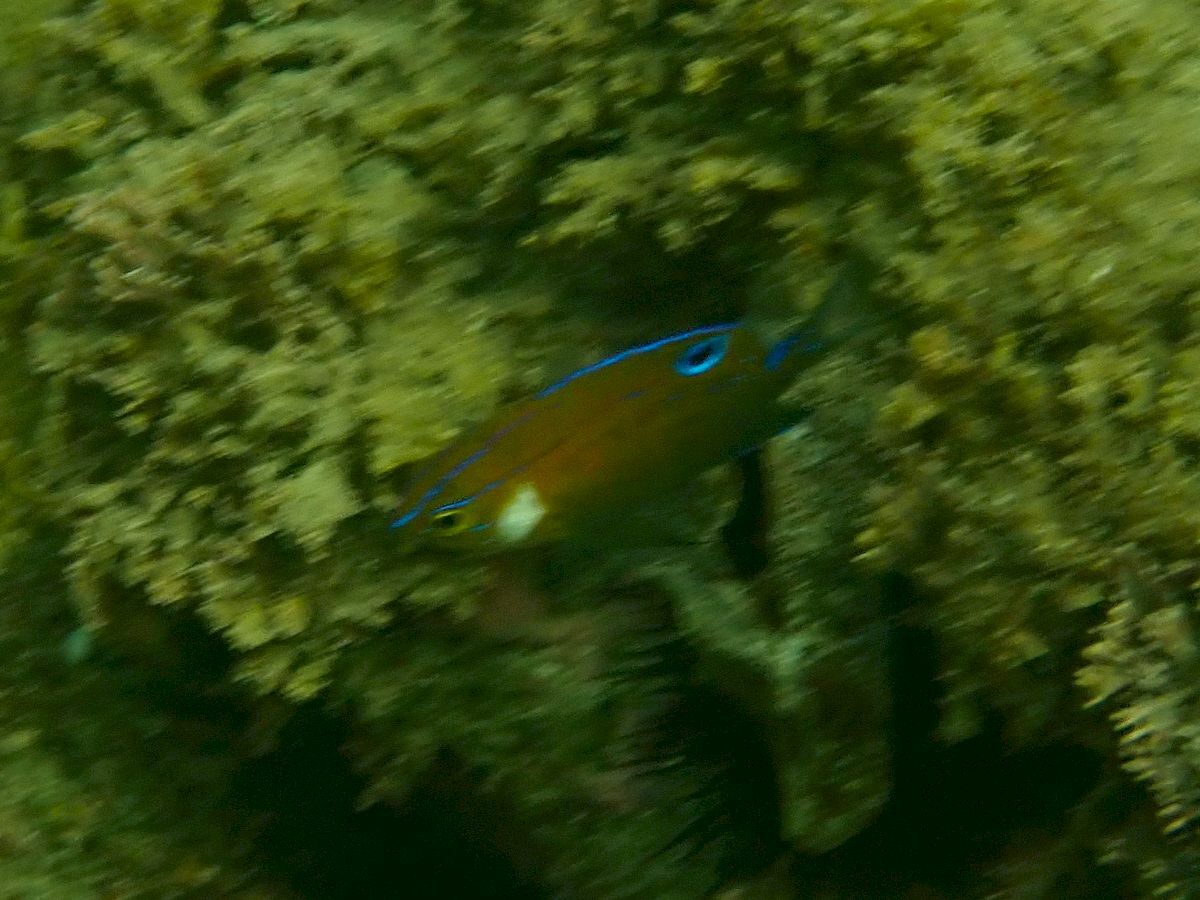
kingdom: Animalia
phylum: Chordata
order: Perciformes
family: Pomacentridae
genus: Parma
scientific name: Parma microlepis
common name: White-ear
